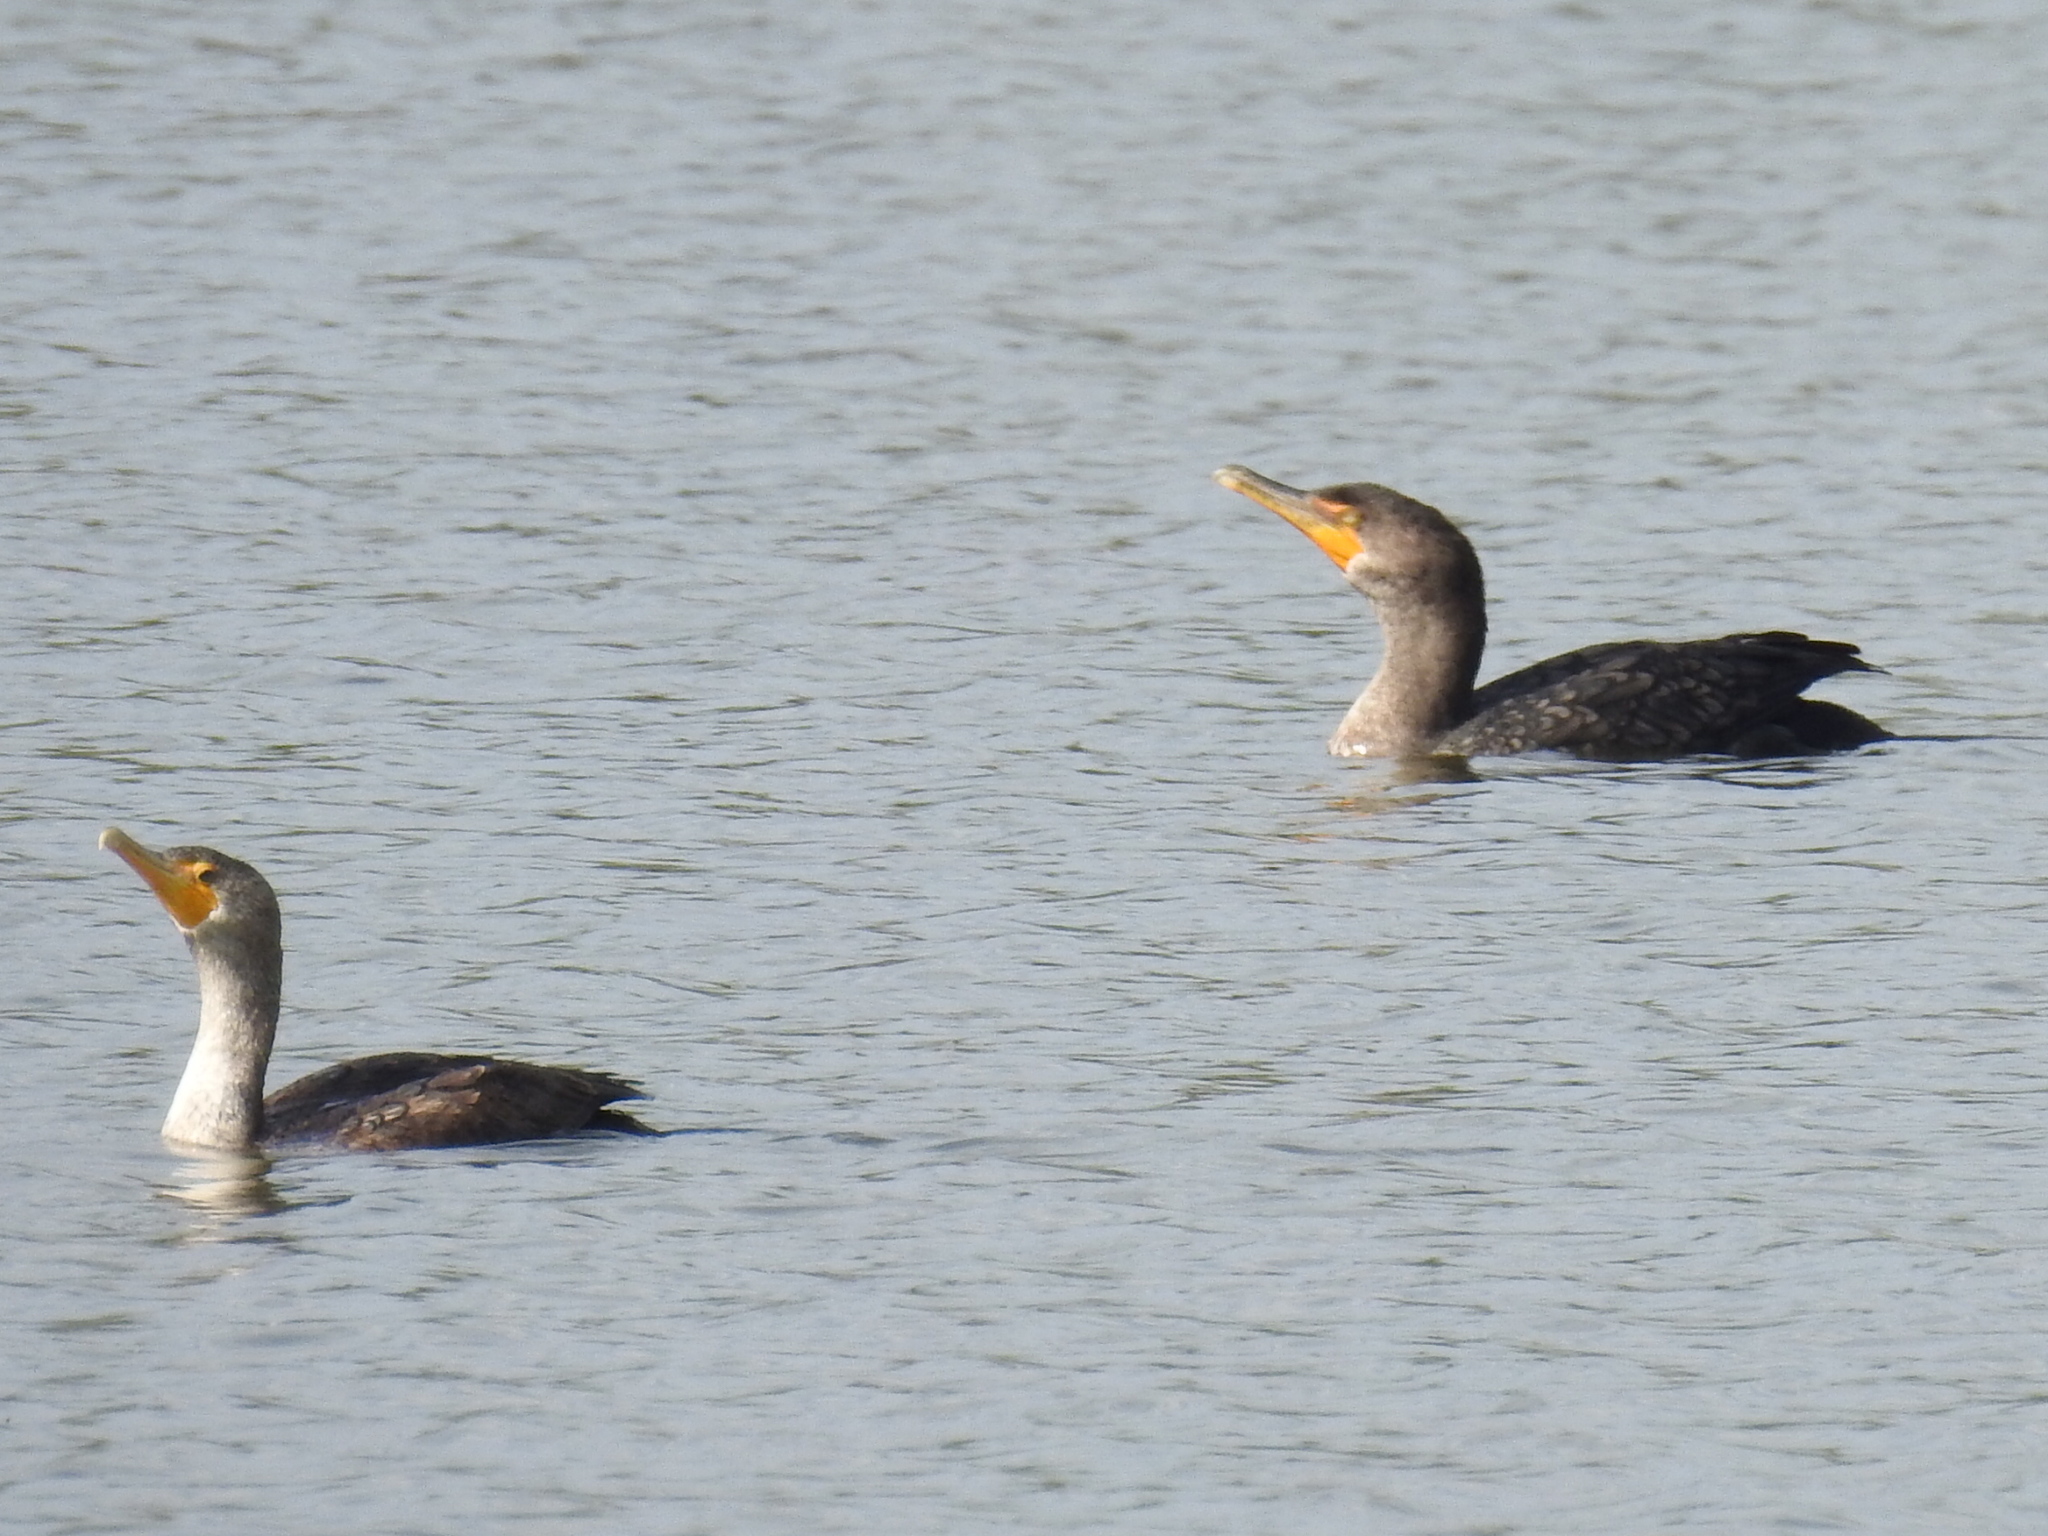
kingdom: Animalia
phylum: Chordata
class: Aves
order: Suliformes
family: Phalacrocoracidae
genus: Phalacrocorax
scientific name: Phalacrocorax auritus
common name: Double-crested cormorant
